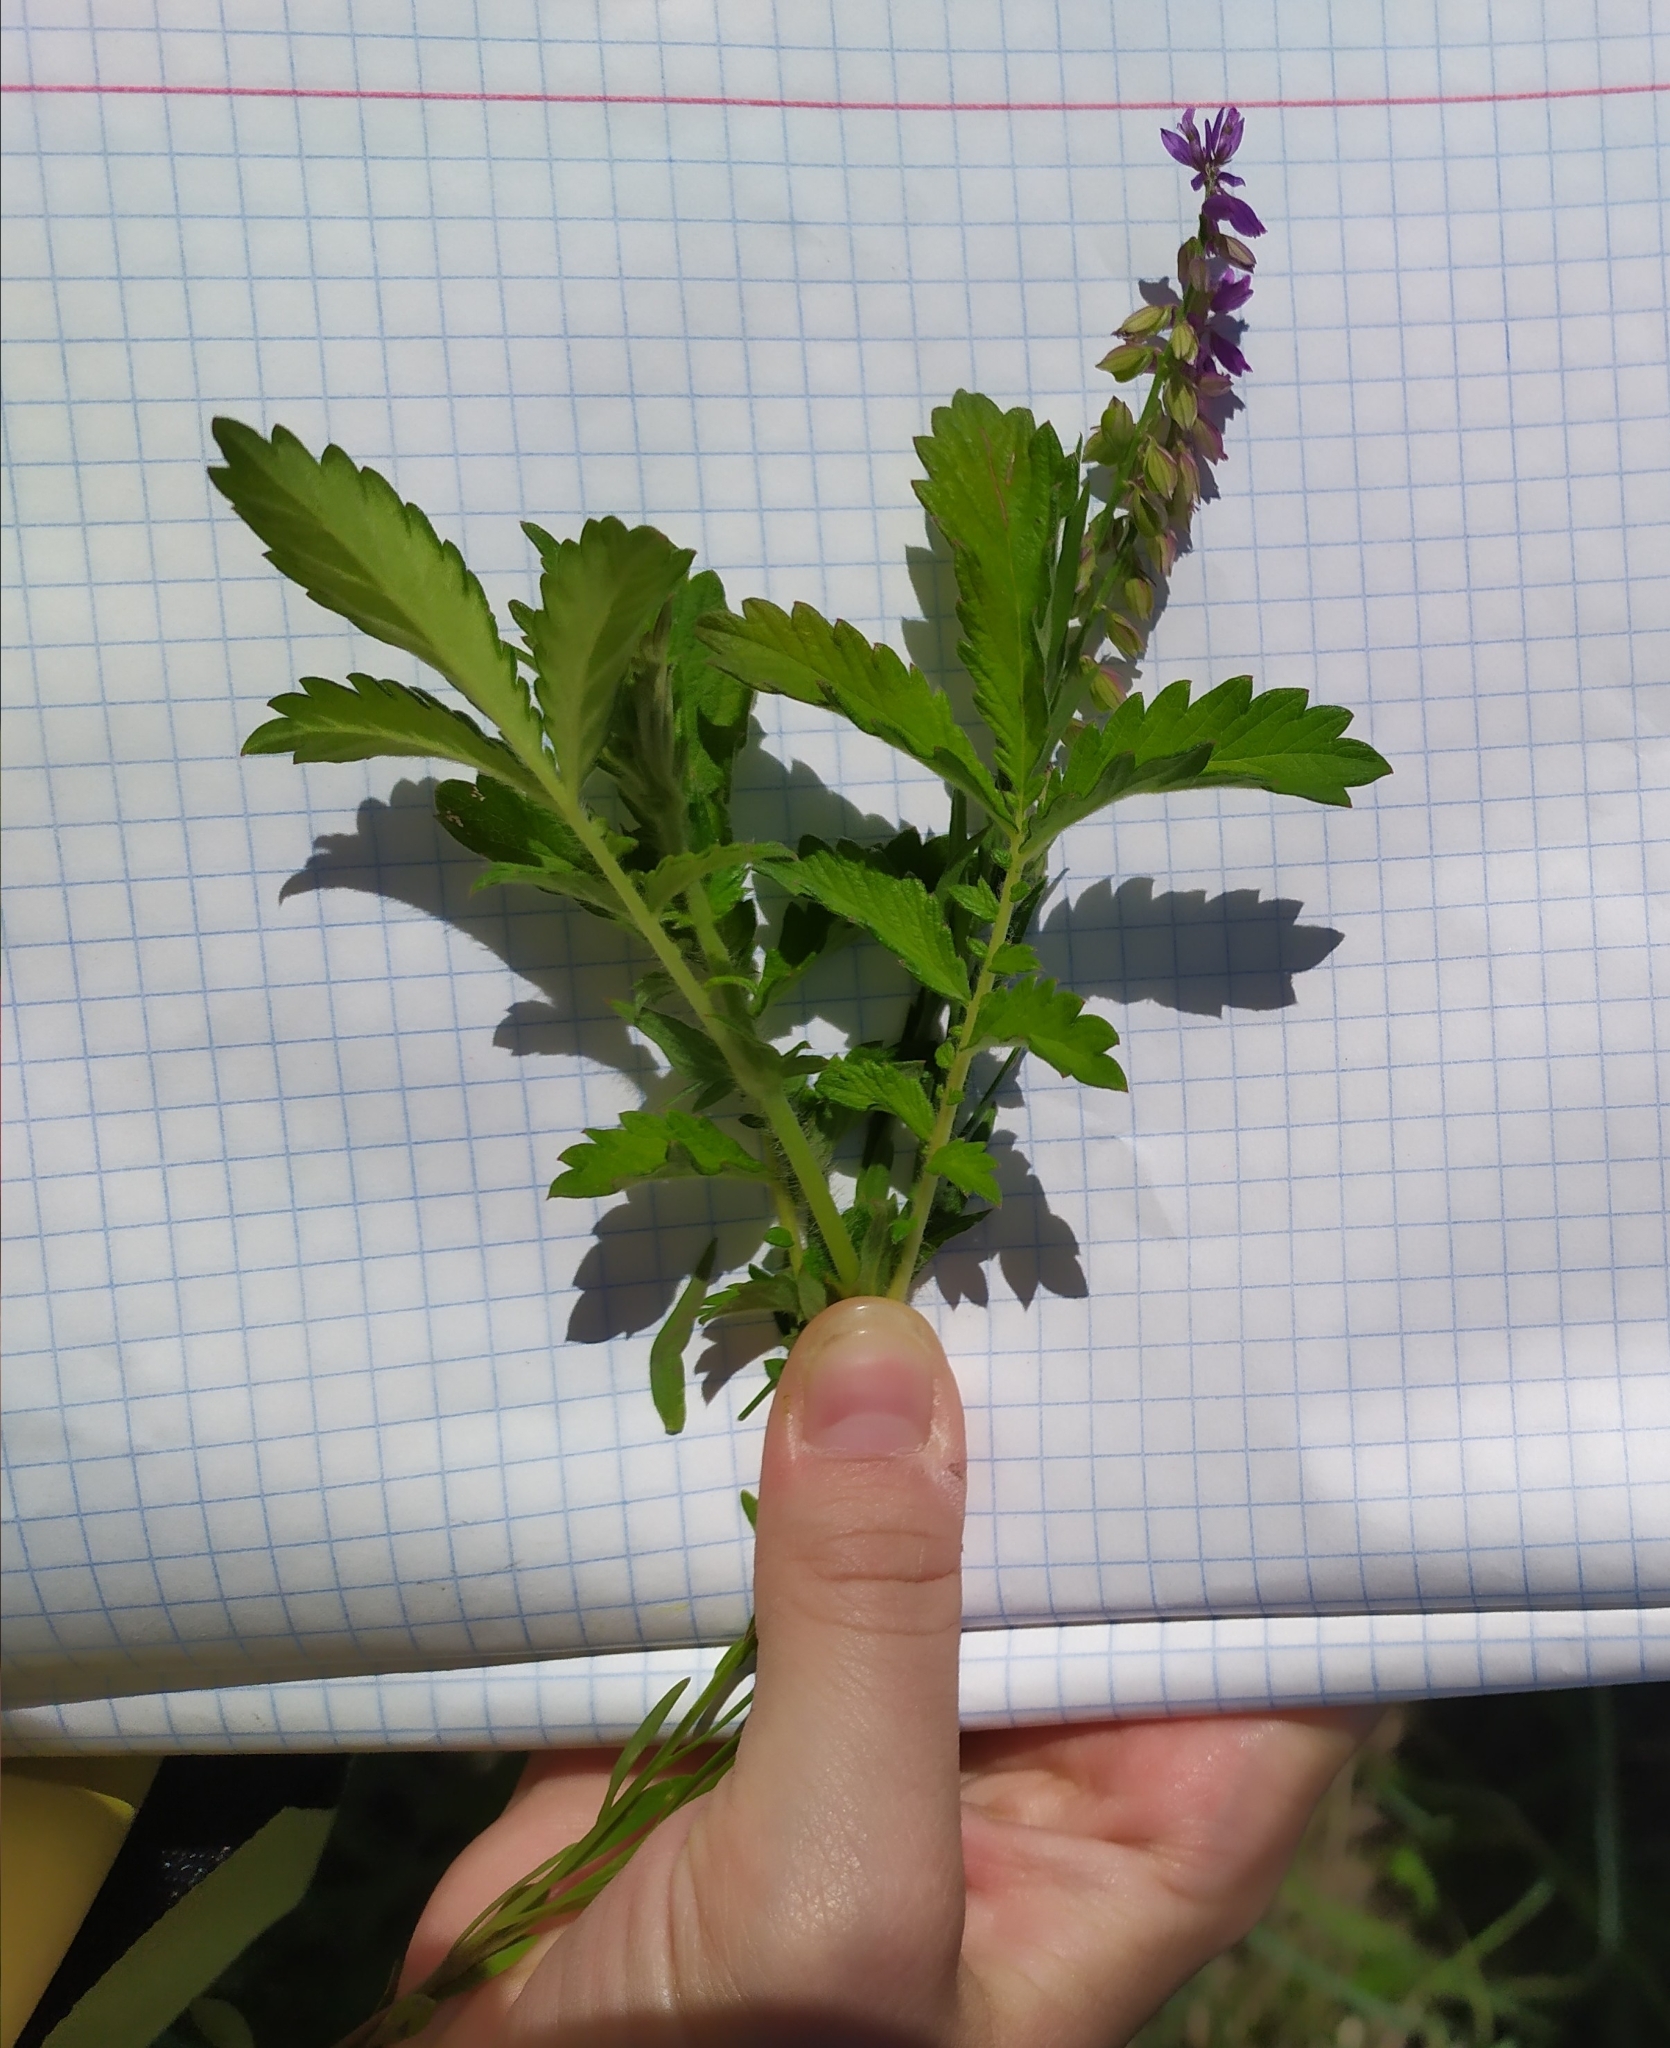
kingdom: Plantae
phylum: Tracheophyta
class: Magnoliopsida
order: Rosales
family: Rosaceae
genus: Agrimonia
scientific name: Agrimonia eupatoria
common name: Agrimony
